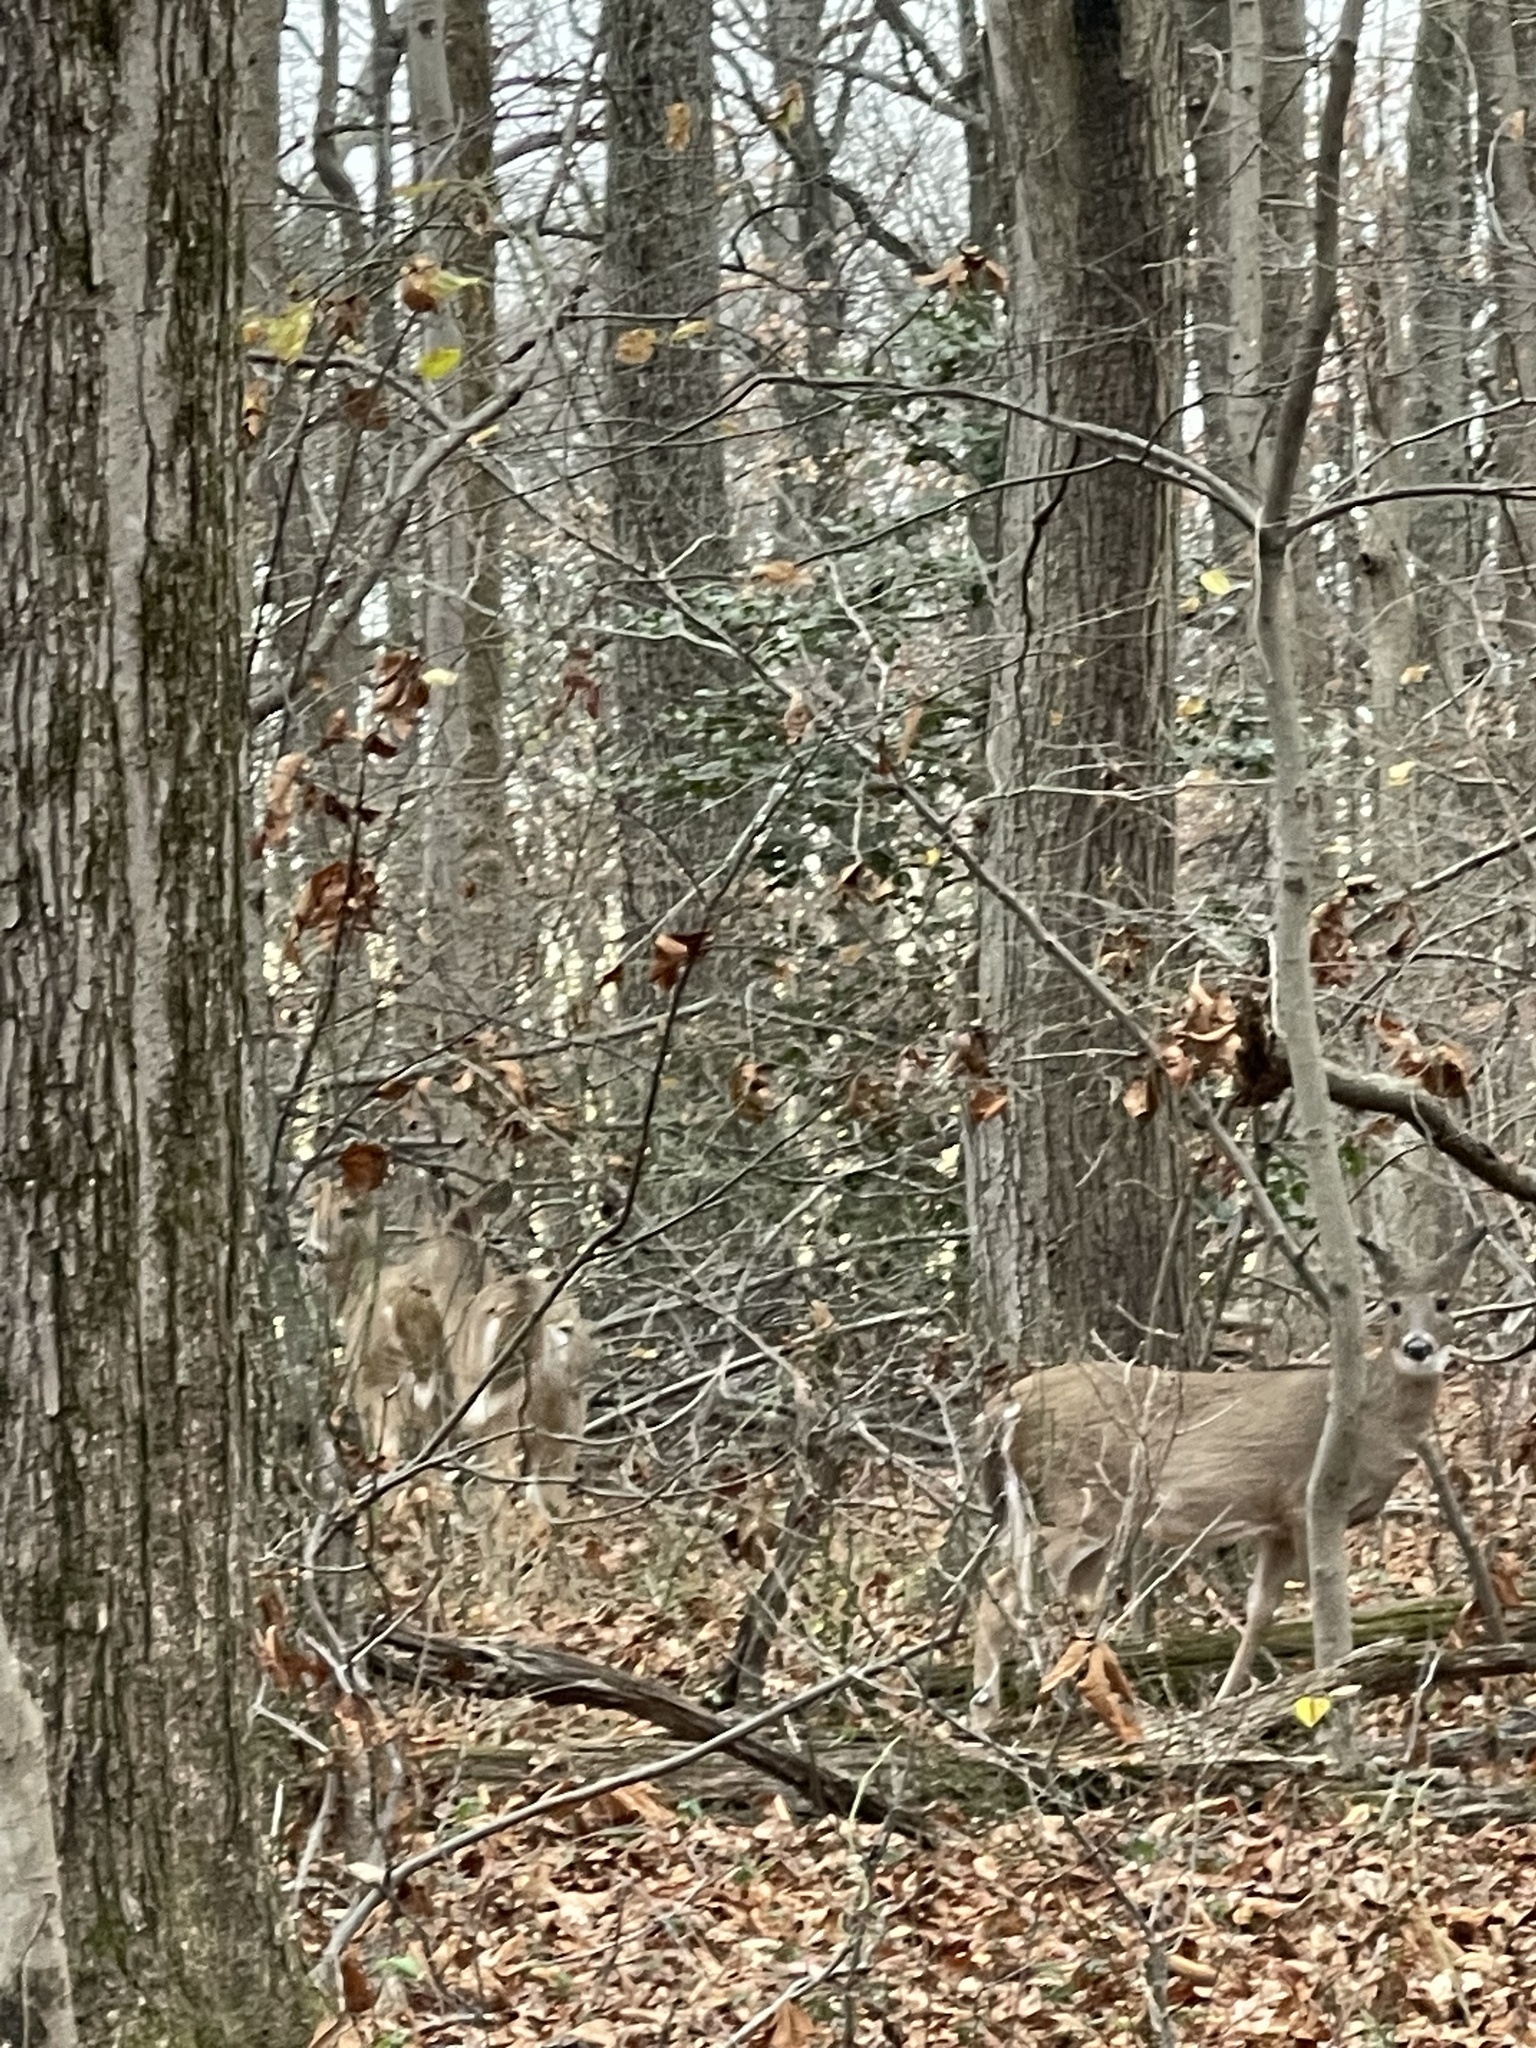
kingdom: Animalia
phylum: Chordata
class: Mammalia
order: Artiodactyla
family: Cervidae
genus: Odocoileus
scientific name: Odocoileus virginianus
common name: White-tailed deer
